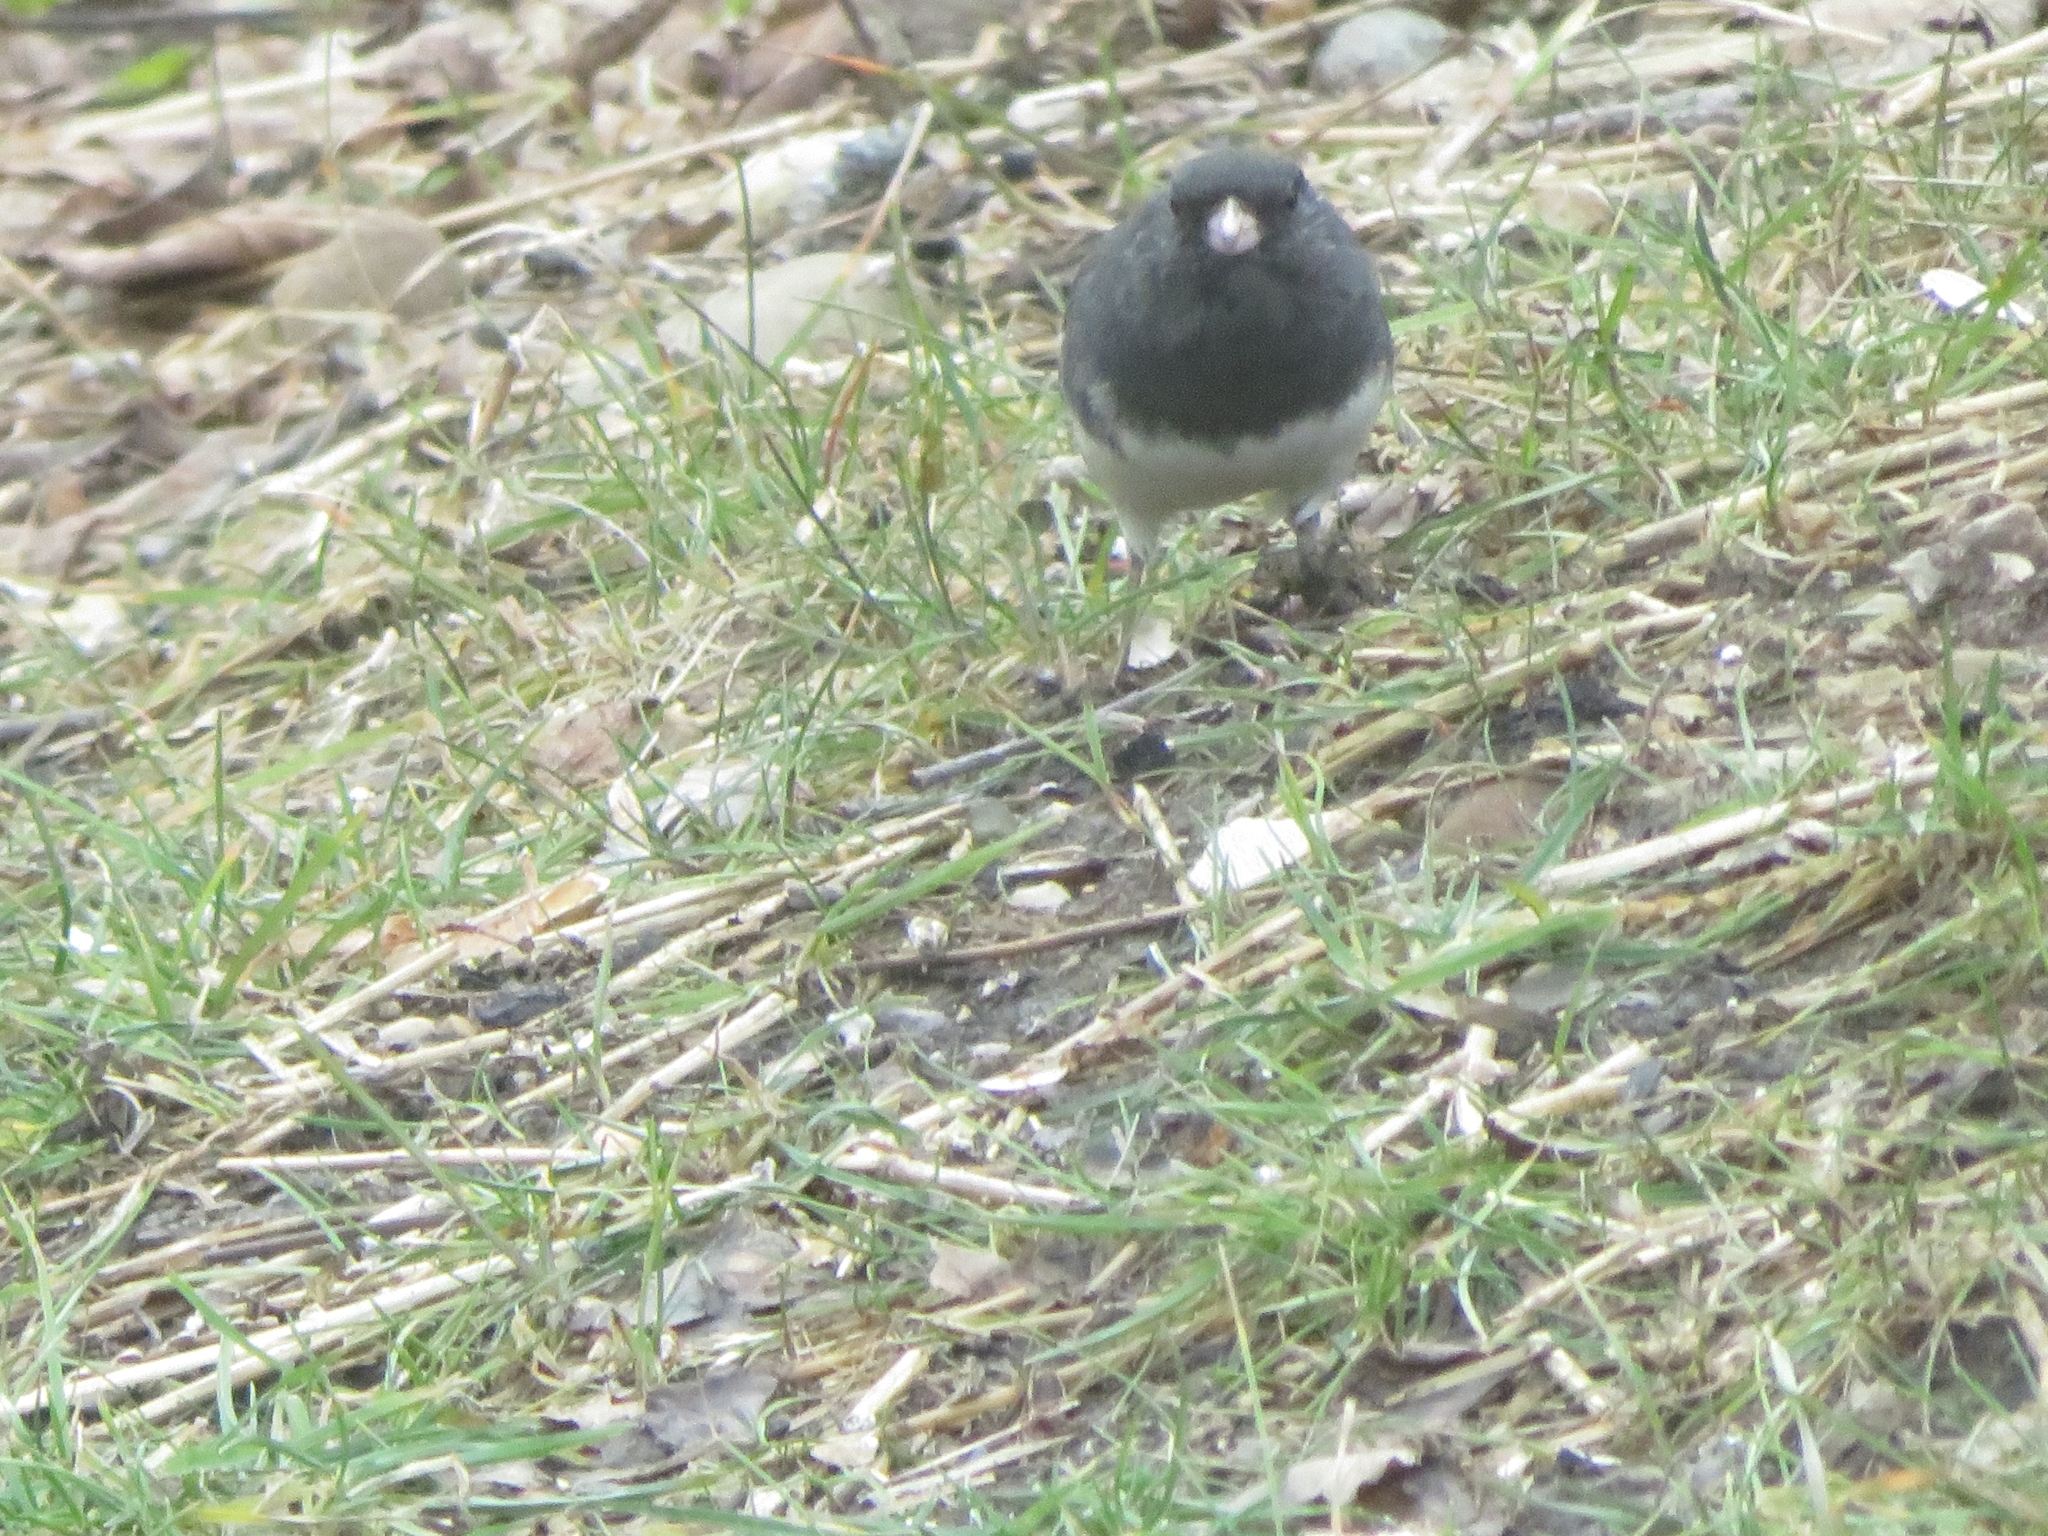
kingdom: Animalia
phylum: Chordata
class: Aves
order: Passeriformes
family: Passerellidae
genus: Junco
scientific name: Junco hyemalis
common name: Dark-eyed junco
